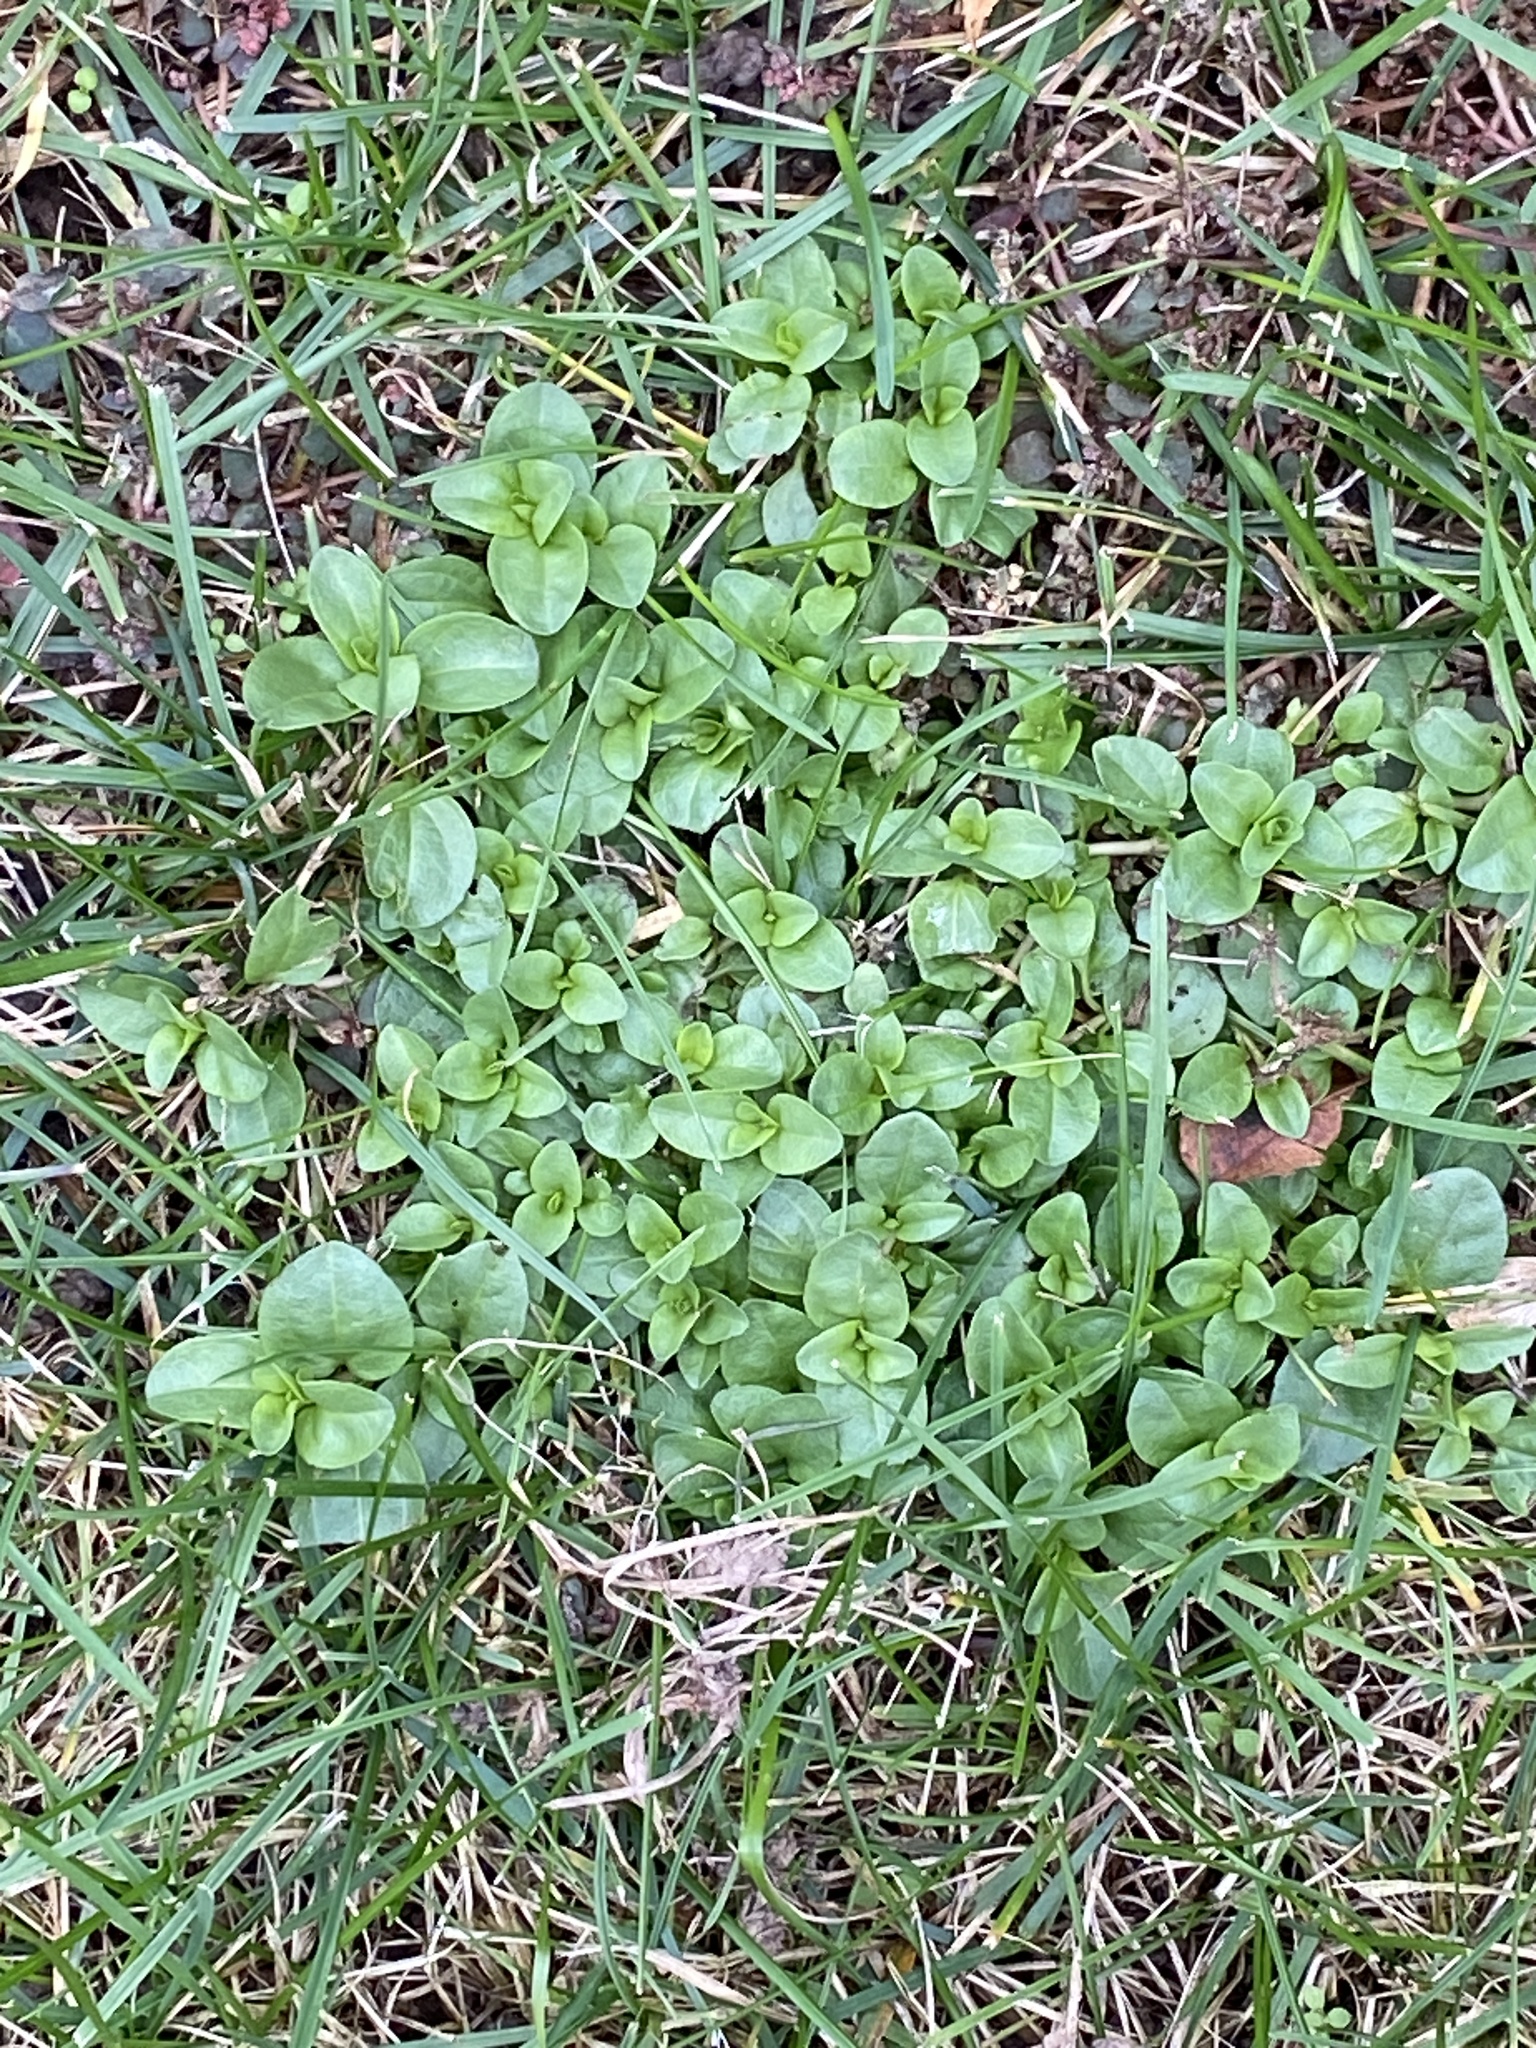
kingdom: Plantae
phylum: Tracheophyta
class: Magnoliopsida
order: Lamiales
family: Plantaginaceae
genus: Veronica
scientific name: Veronica serpyllifolia
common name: Thyme-leaved speedwell
